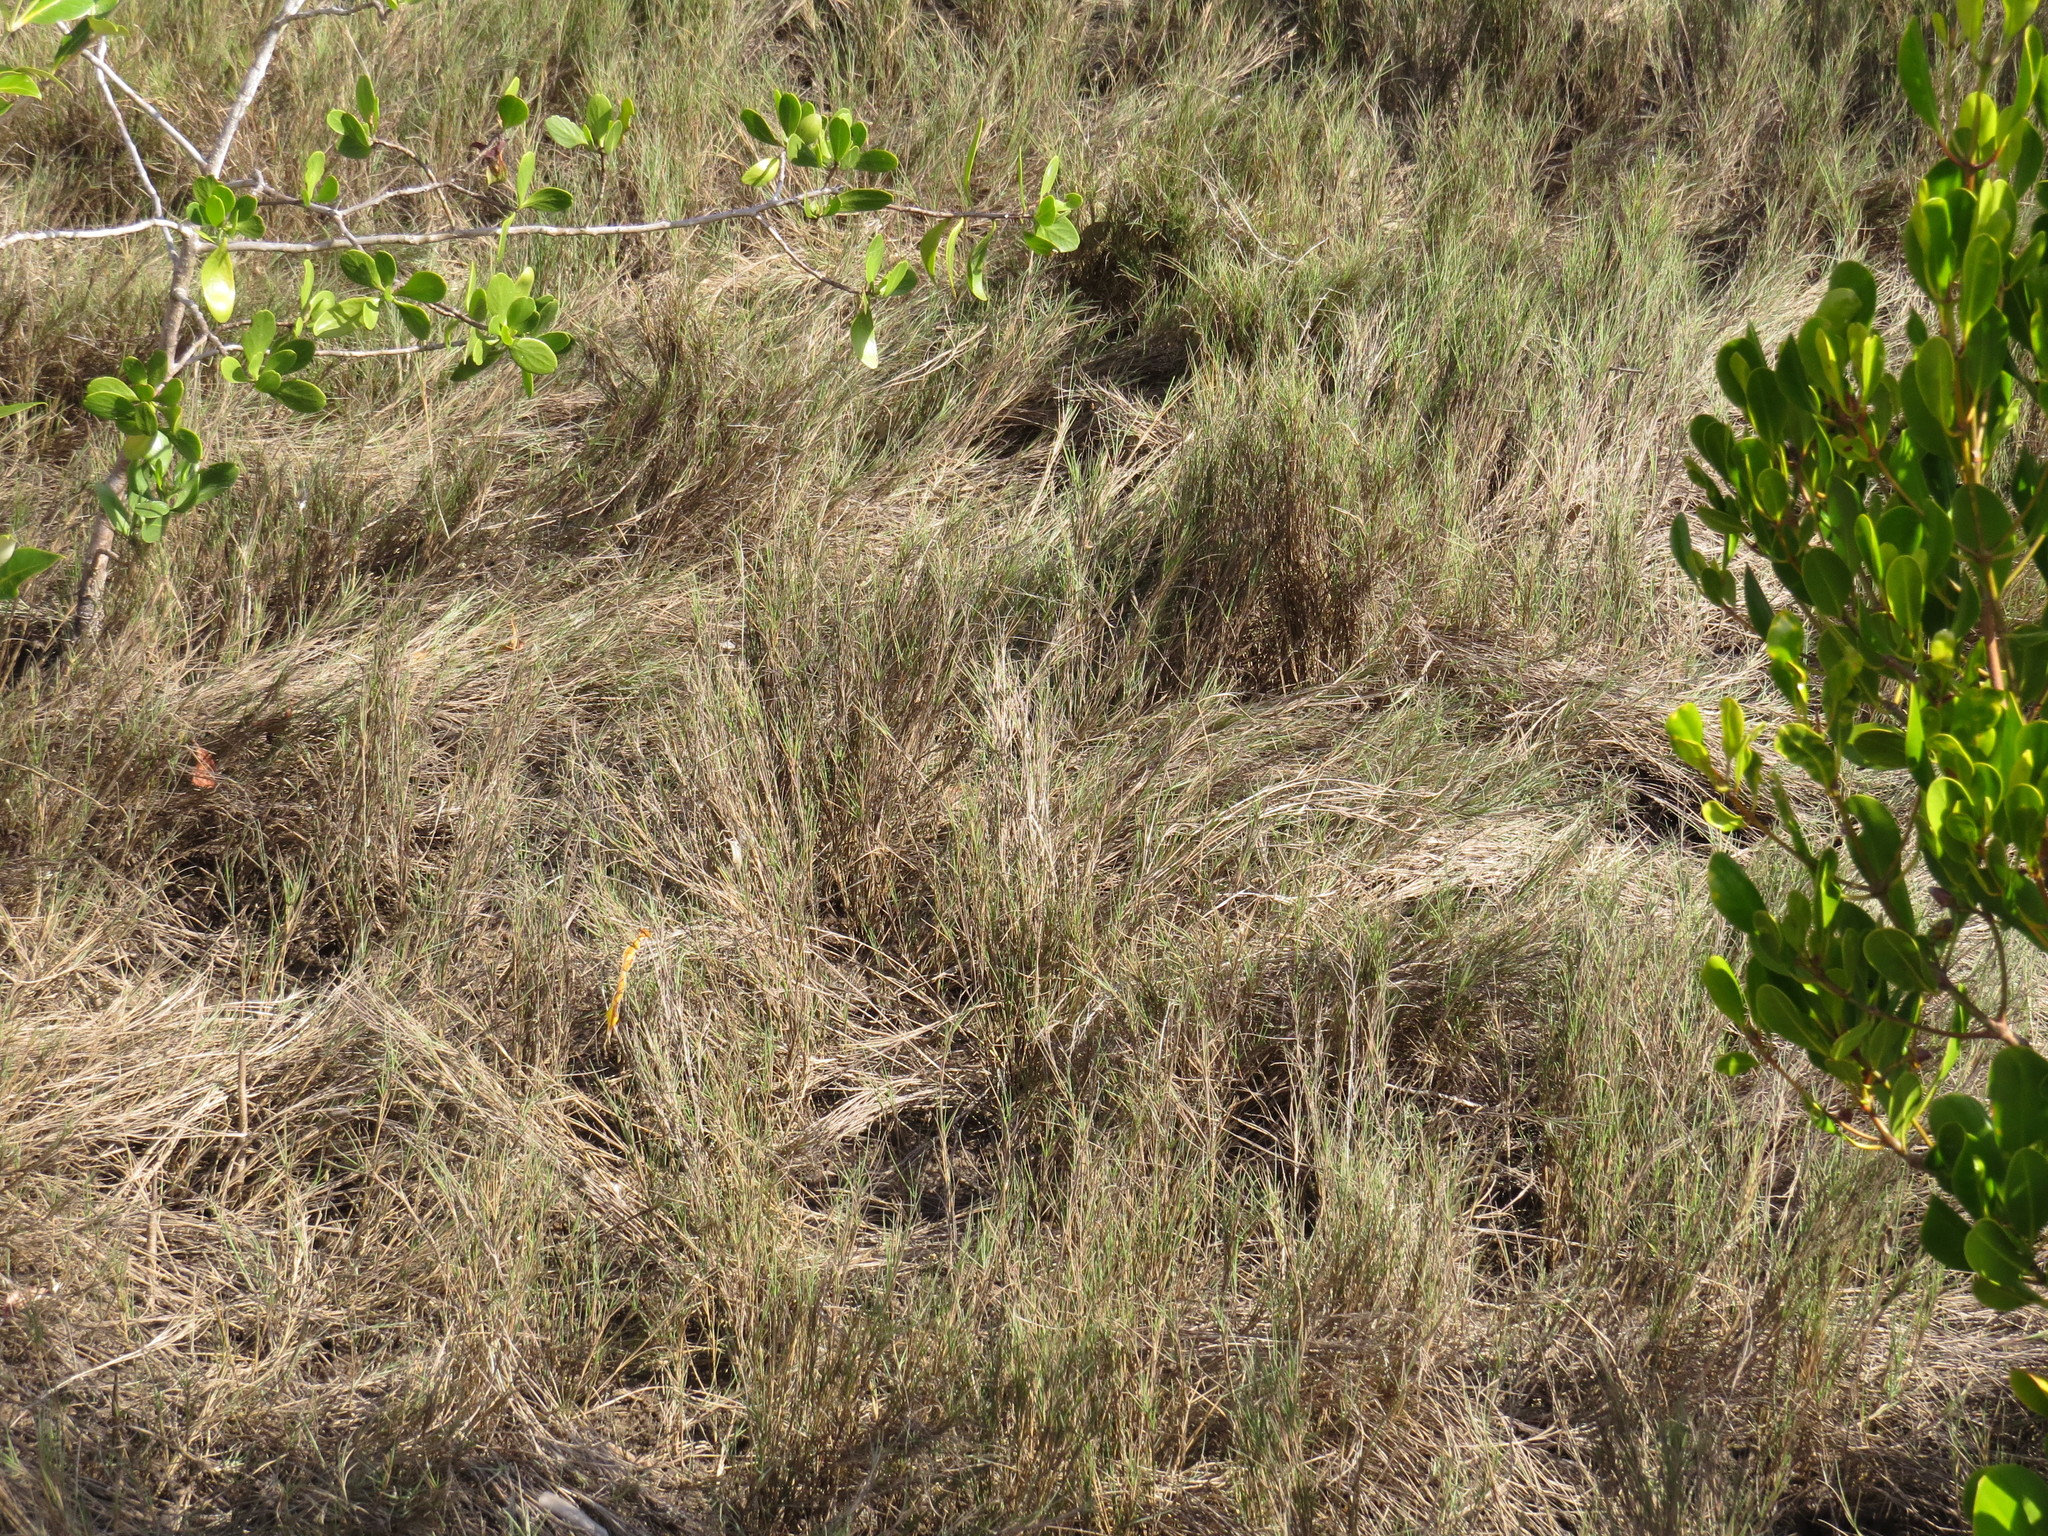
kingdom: Plantae
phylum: Tracheophyta
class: Liliopsida
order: Poales
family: Poaceae
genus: Sporobolus
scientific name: Sporobolus virginicus
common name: Beach dropseed
